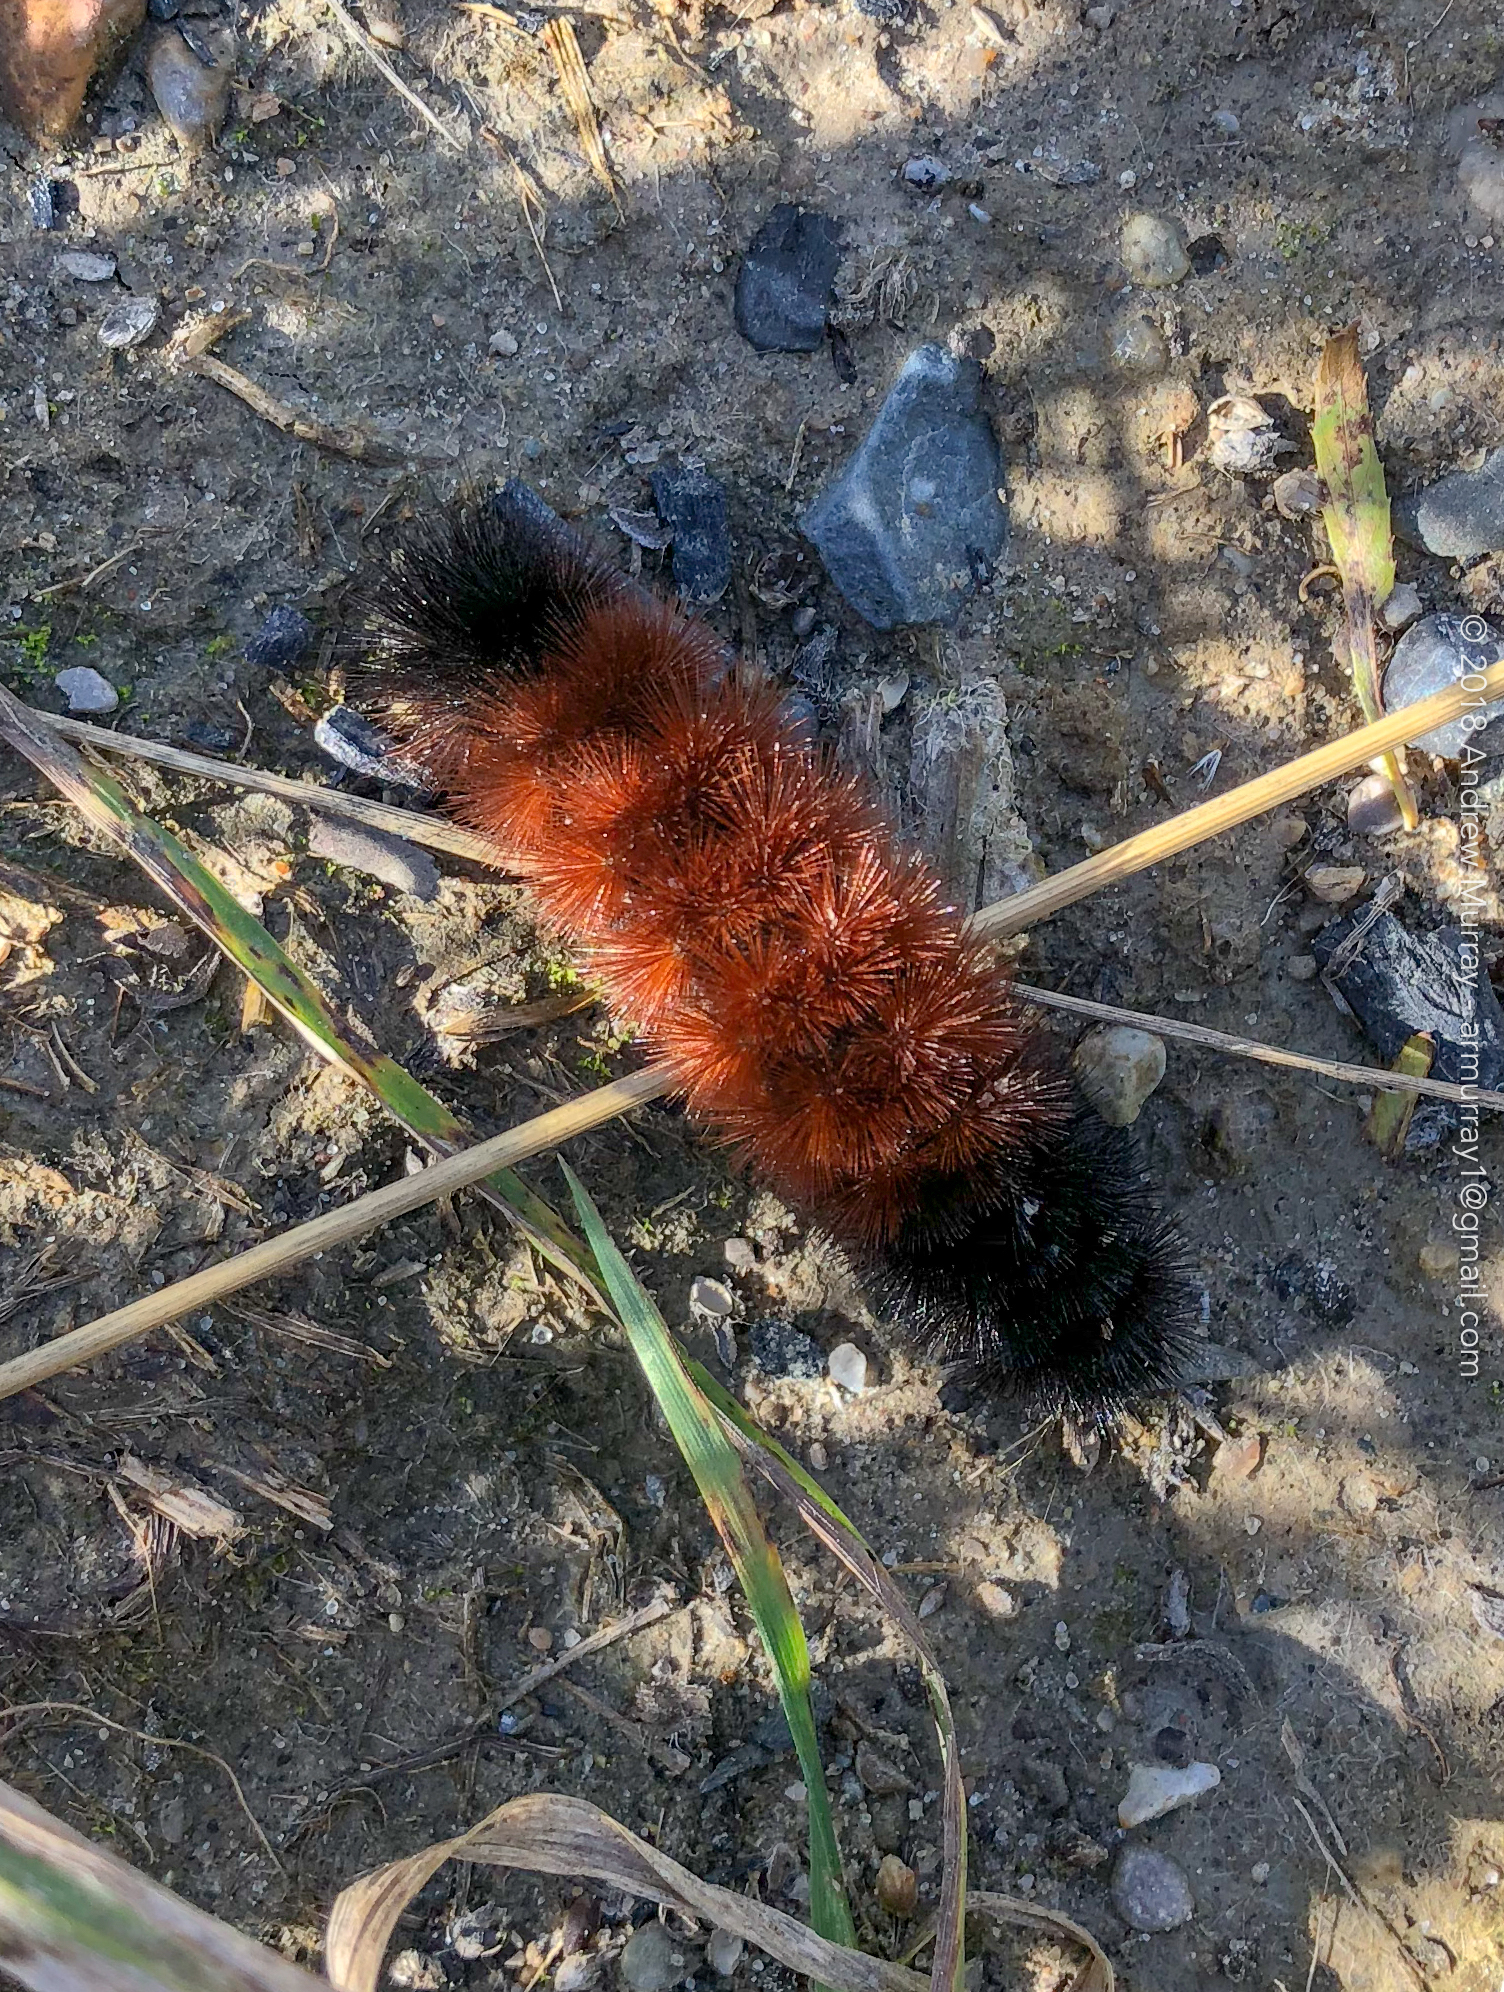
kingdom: Animalia
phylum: Arthropoda
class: Insecta
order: Lepidoptera
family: Erebidae
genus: Pyrrharctia
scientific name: Pyrrharctia isabella
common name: Isabella tiger moth
